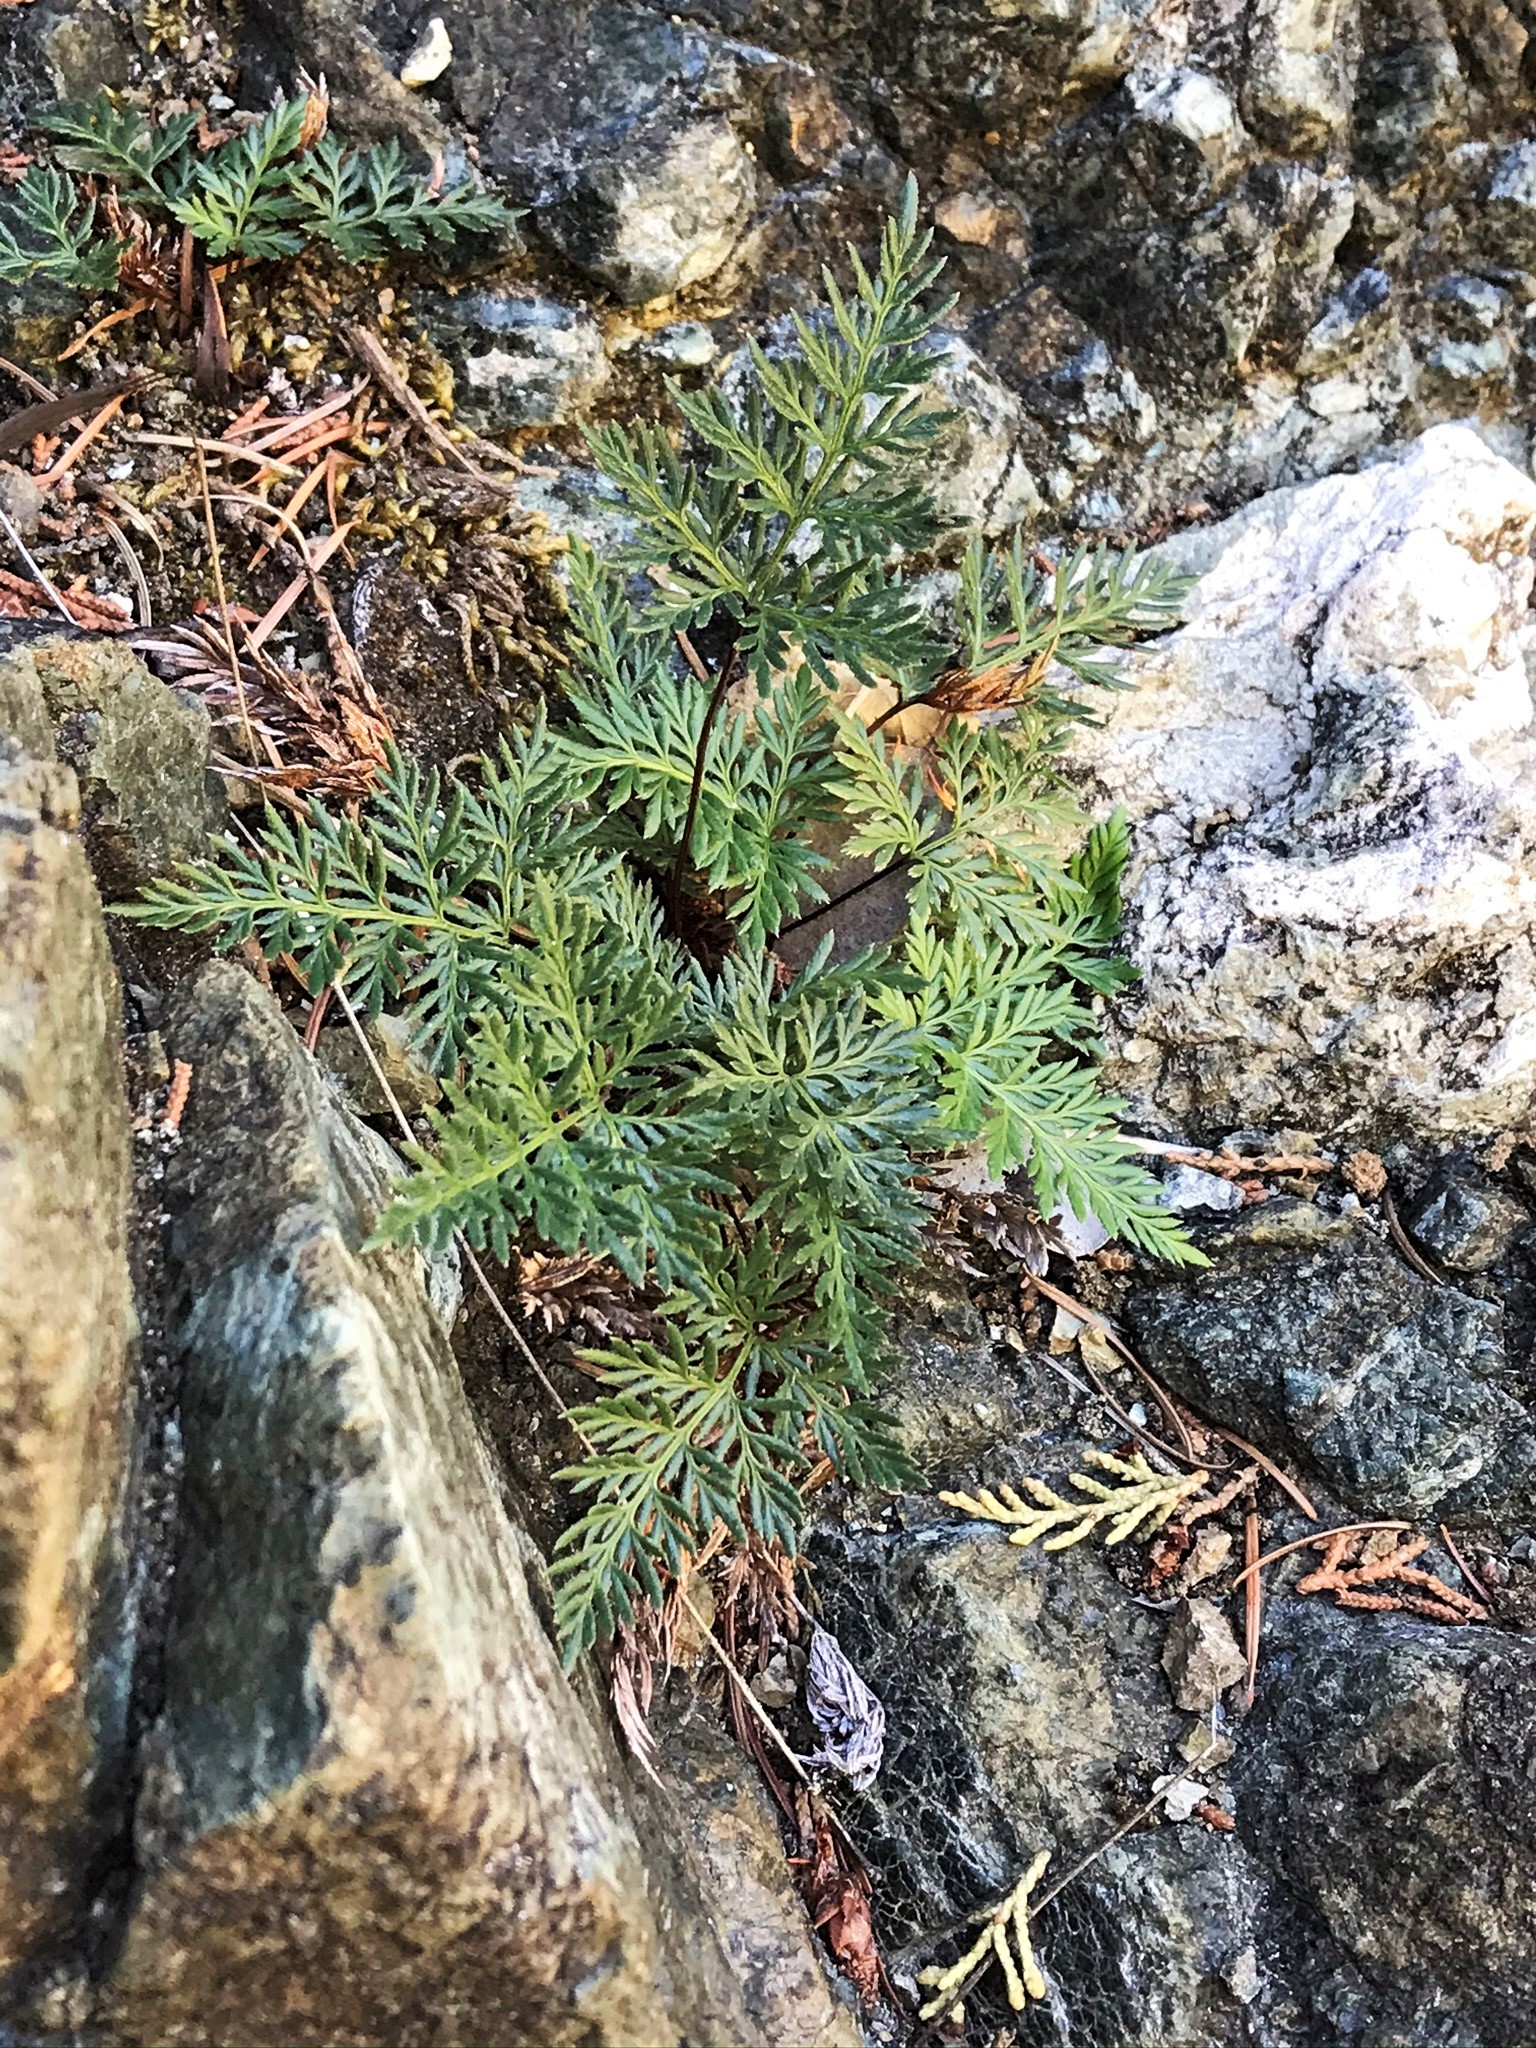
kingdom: Plantae
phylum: Tracheophyta
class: Polypodiopsida
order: Polypodiales
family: Pteridaceae
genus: Aspidotis
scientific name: Aspidotis densa
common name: Indian's dream
